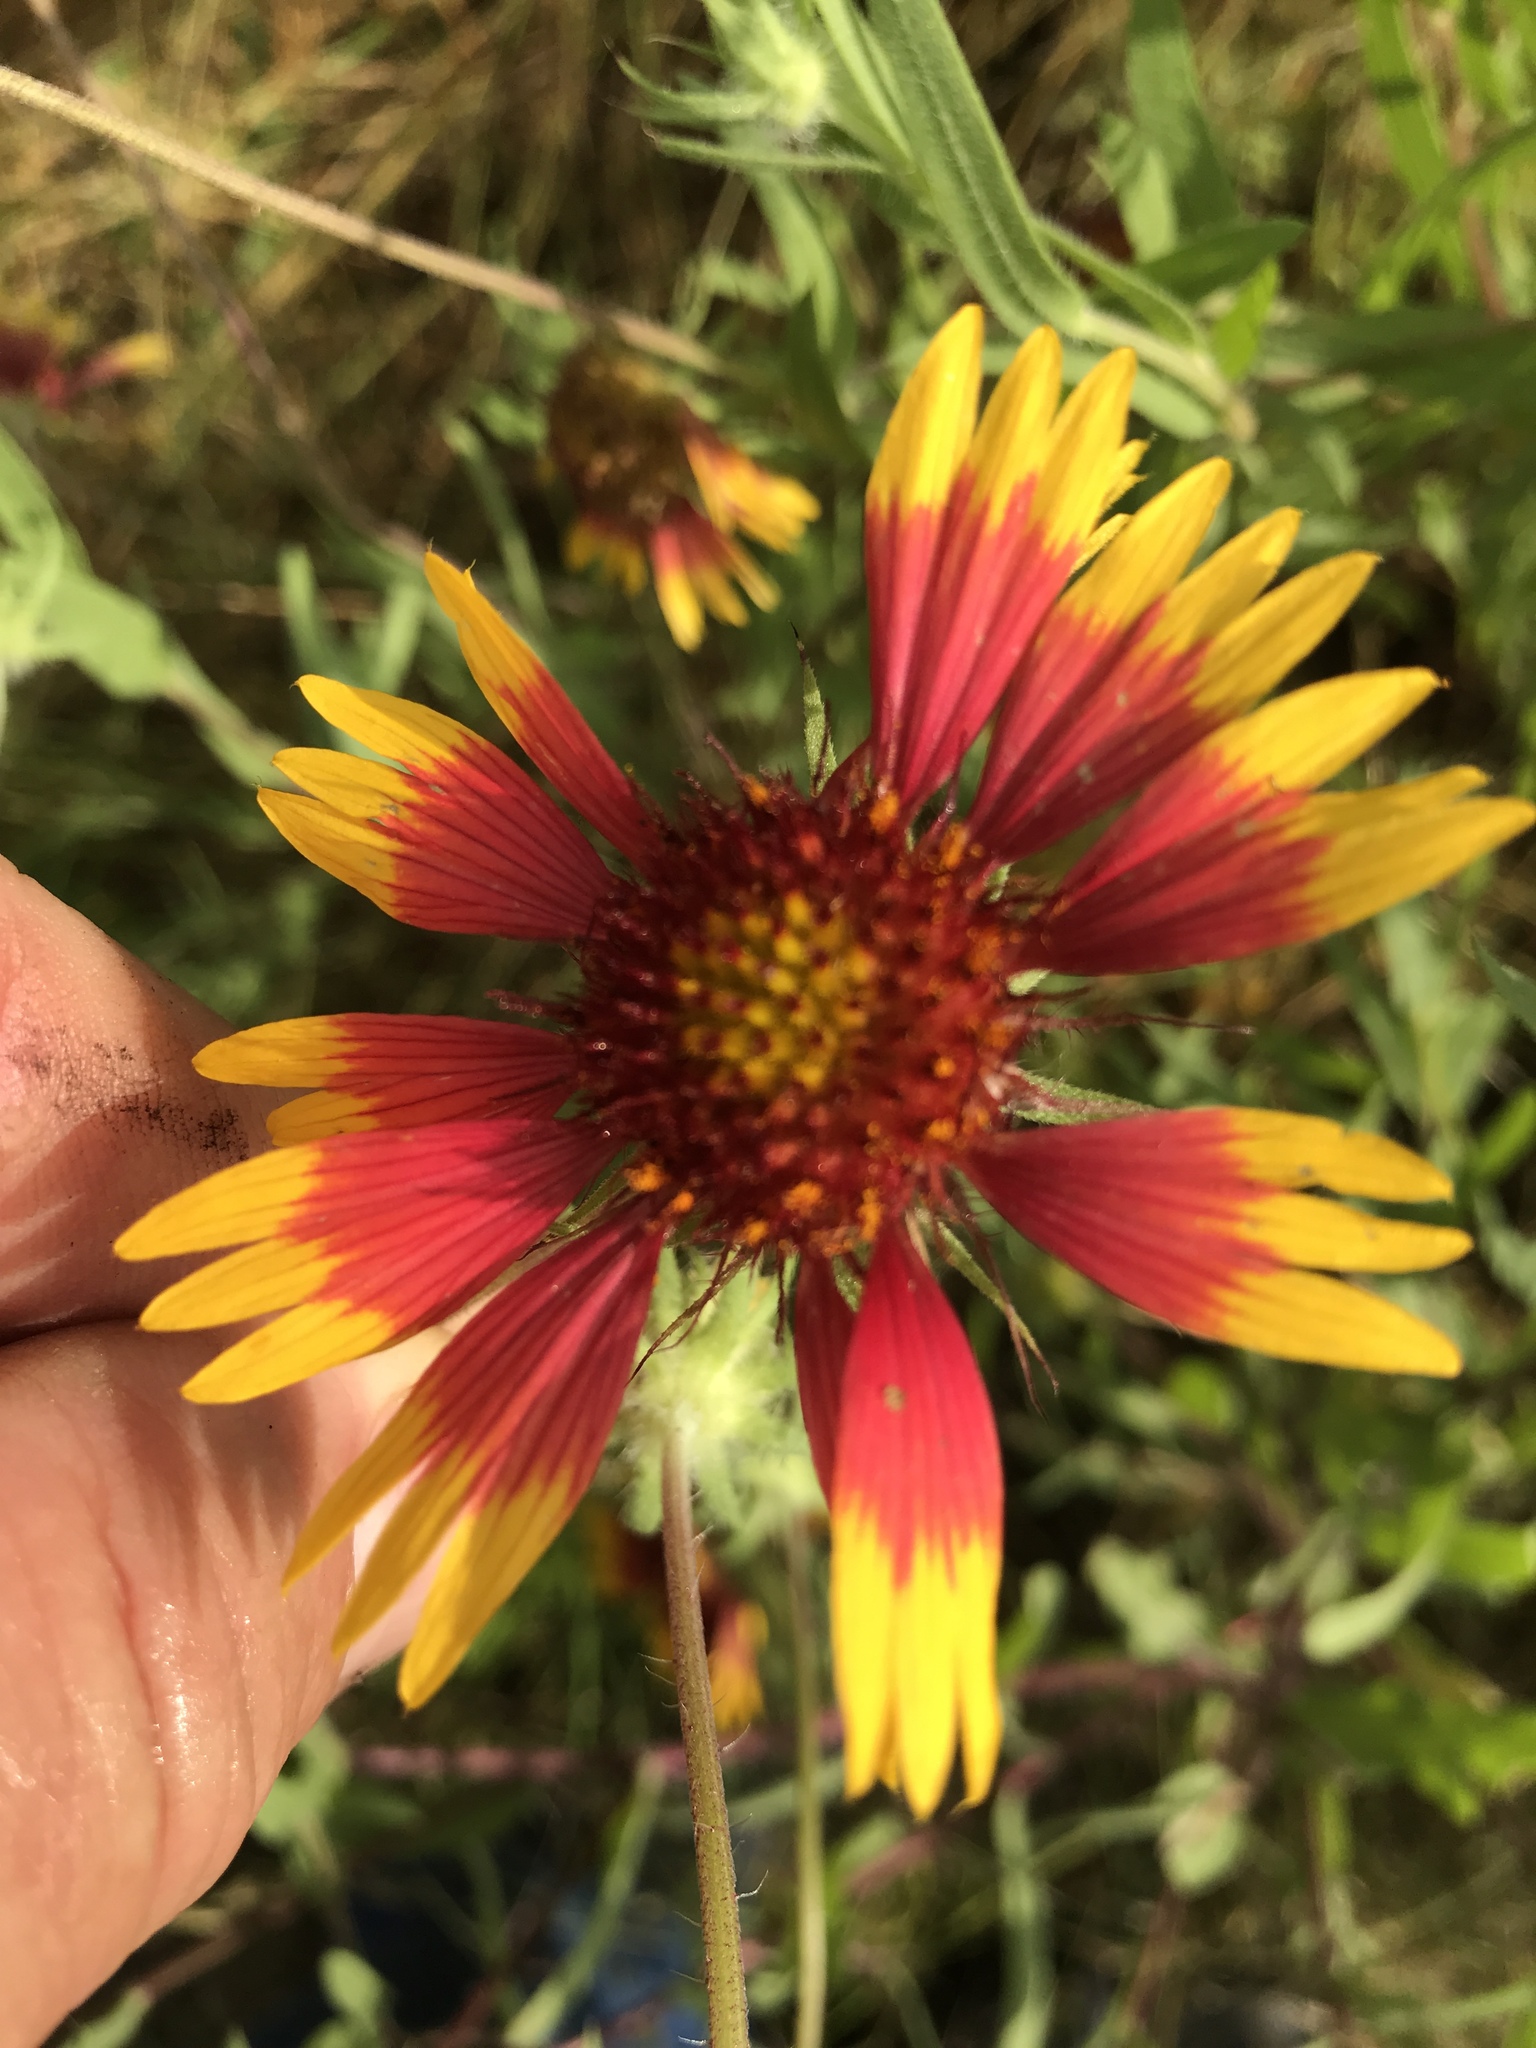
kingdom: Plantae
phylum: Tracheophyta
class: Magnoliopsida
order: Asterales
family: Asteraceae
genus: Gaillardia
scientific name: Gaillardia pulchella
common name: Firewheel
